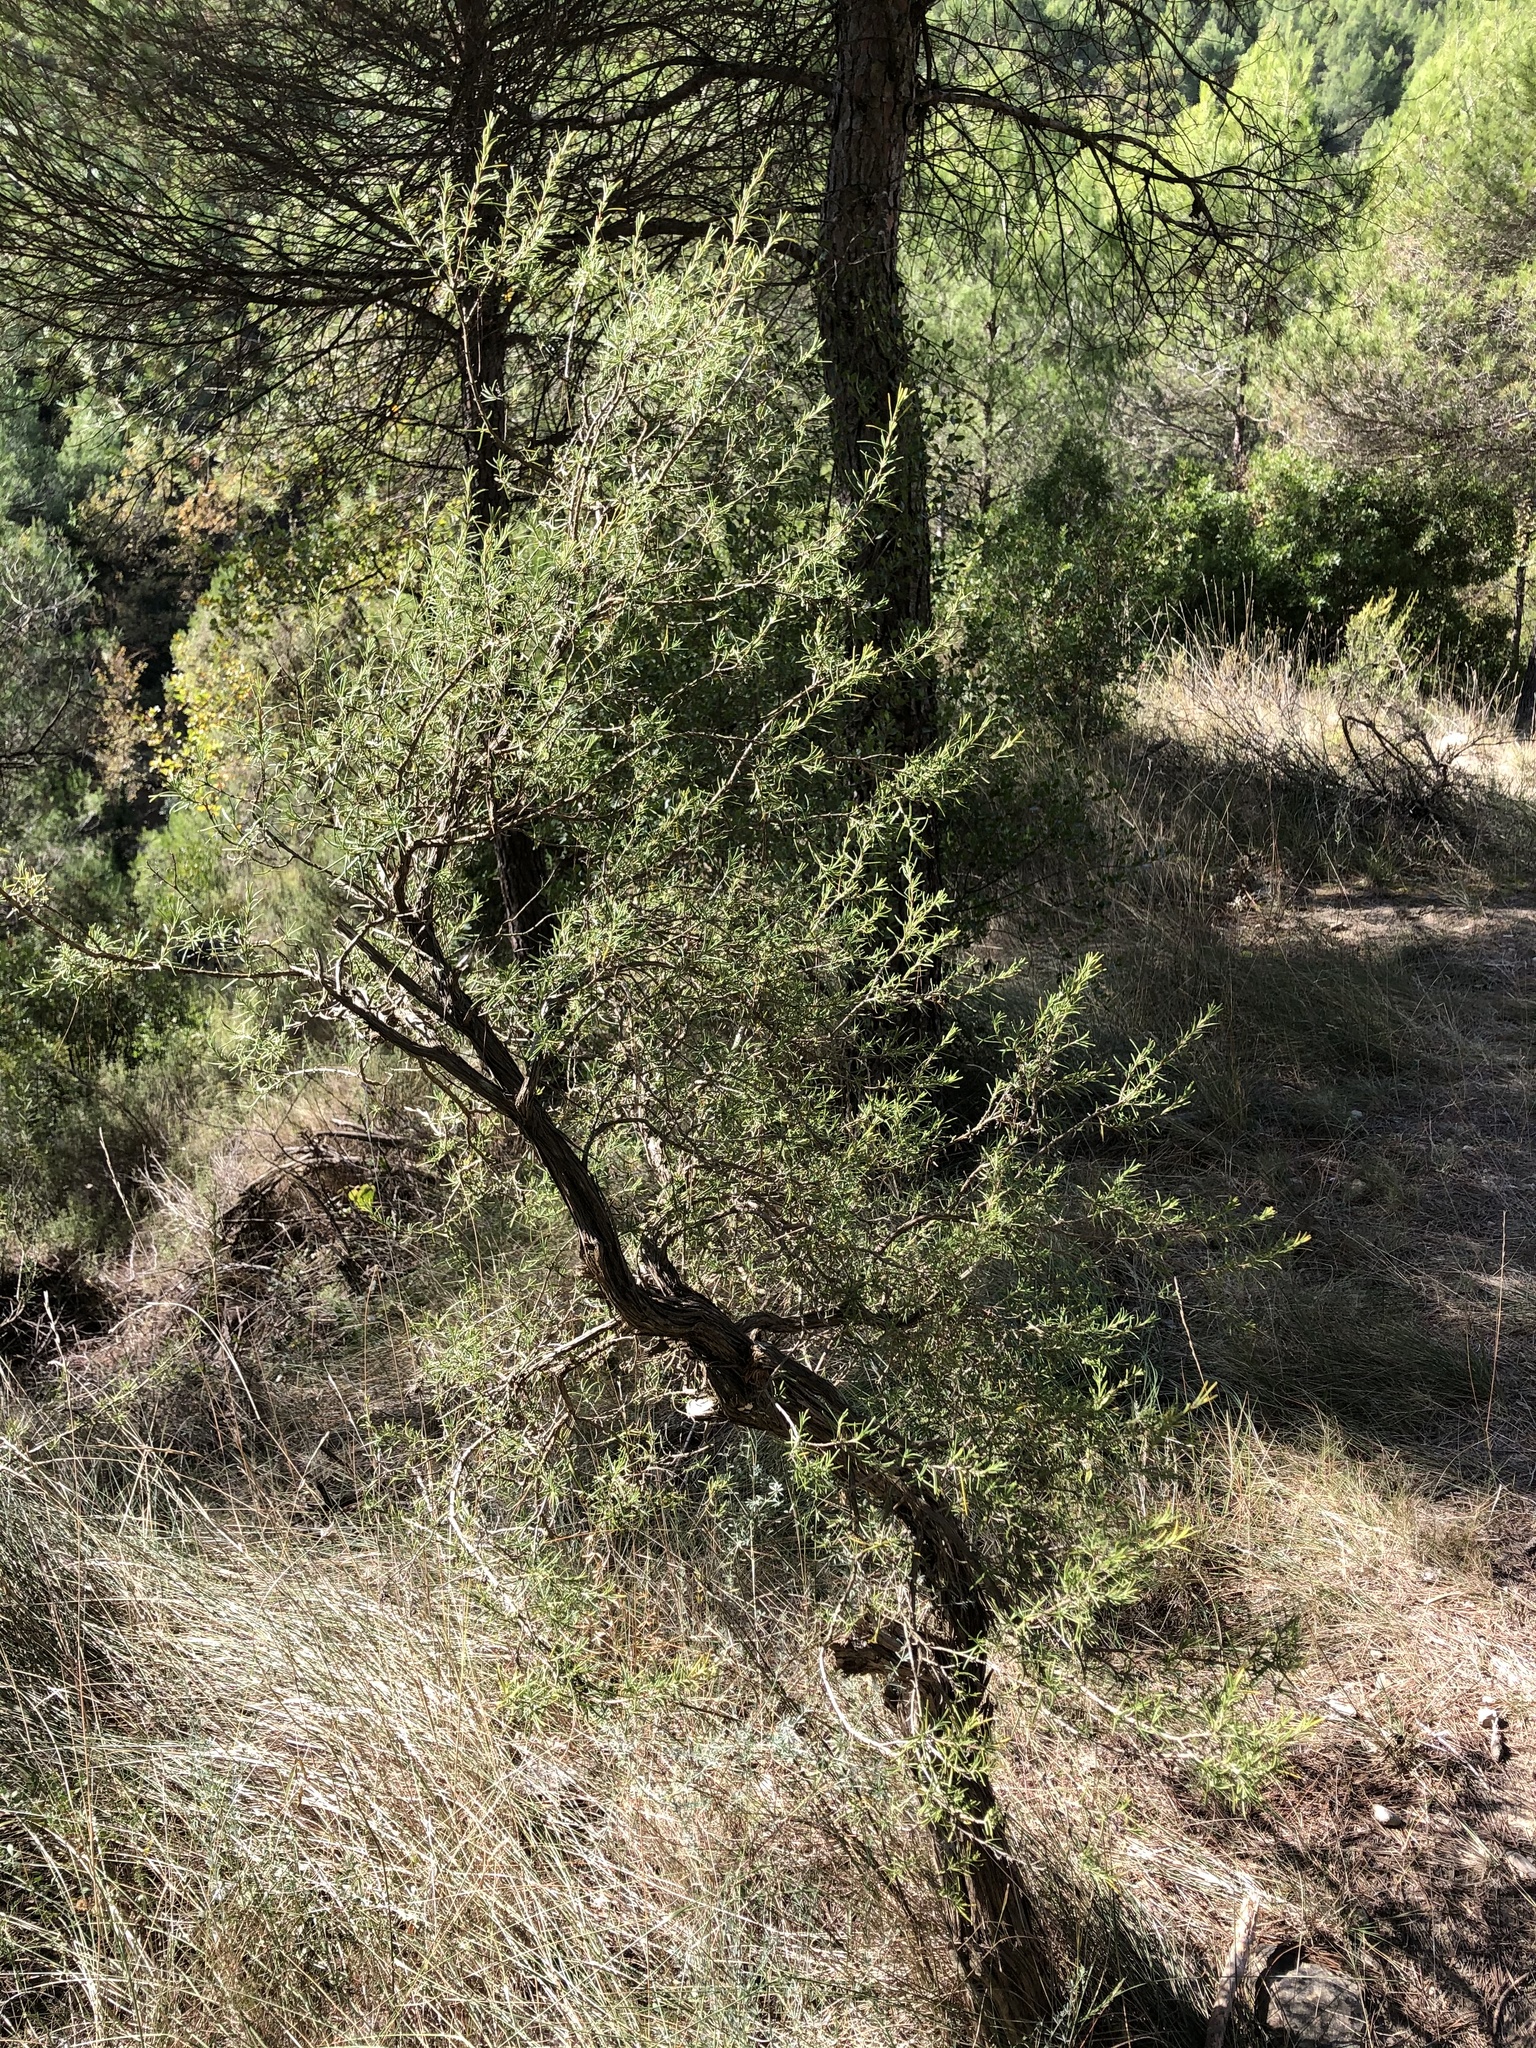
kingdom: Plantae
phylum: Tracheophyta
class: Magnoliopsida
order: Lamiales
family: Lamiaceae
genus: Salvia
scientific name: Salvia rosmarinus
